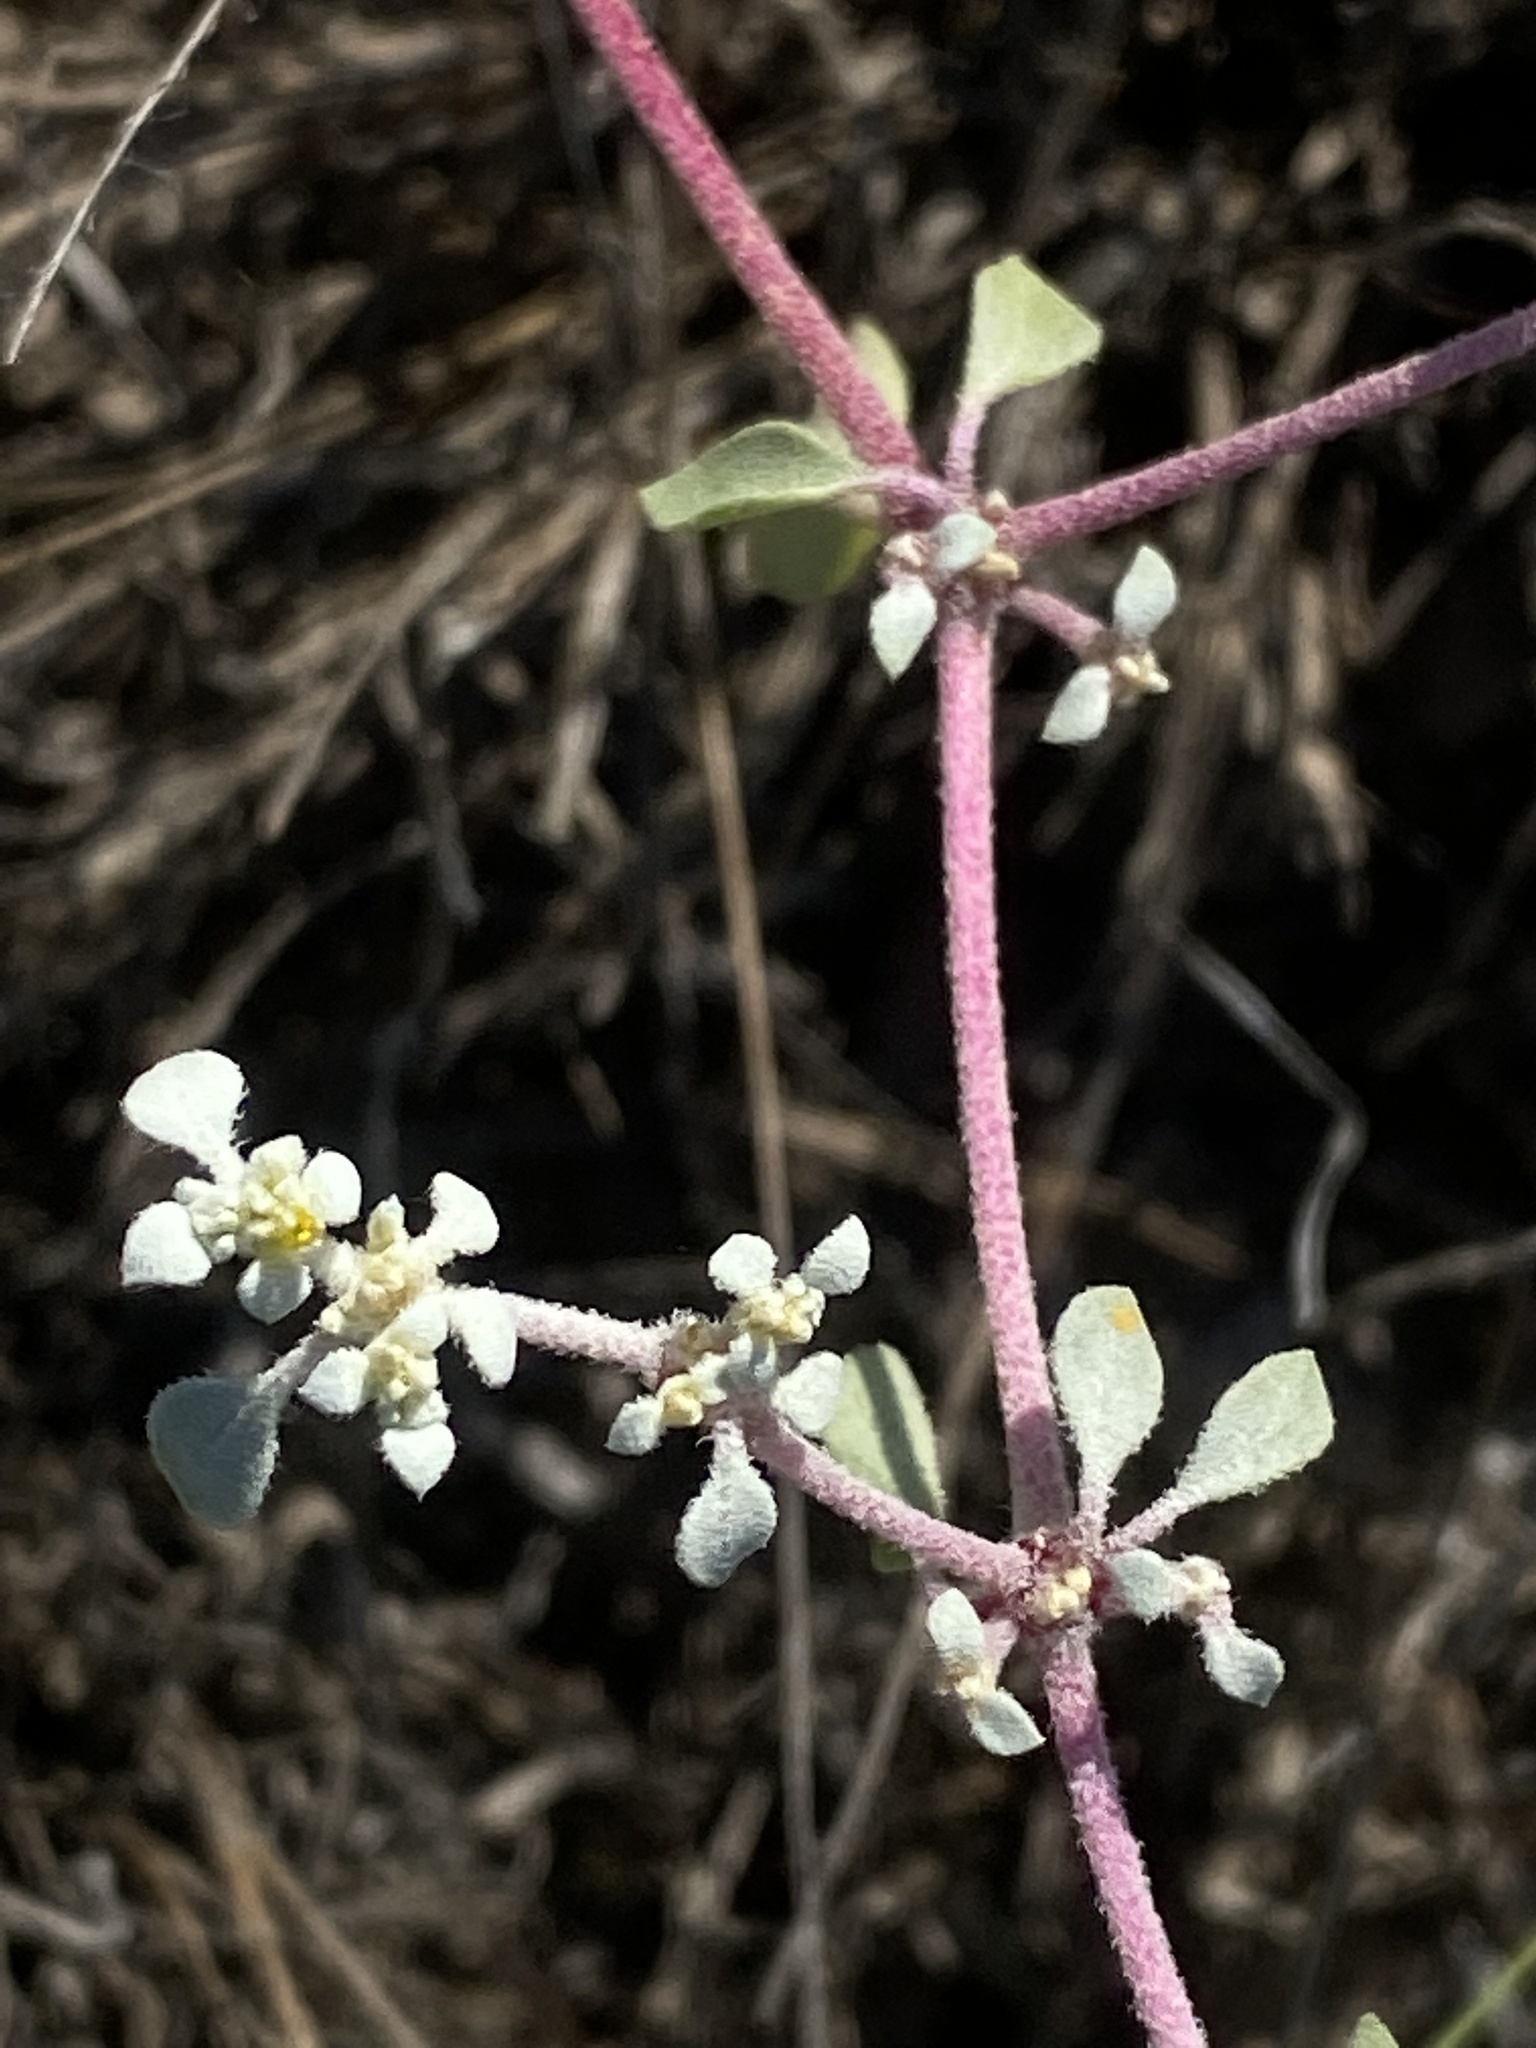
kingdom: Plantae
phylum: Tracheophyta
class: Magnoliopsida
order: Caryophyllales
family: Amaranthaceae
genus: Tidestromia
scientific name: Tidestromia lanuginosa
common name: Woolly tidestromia
